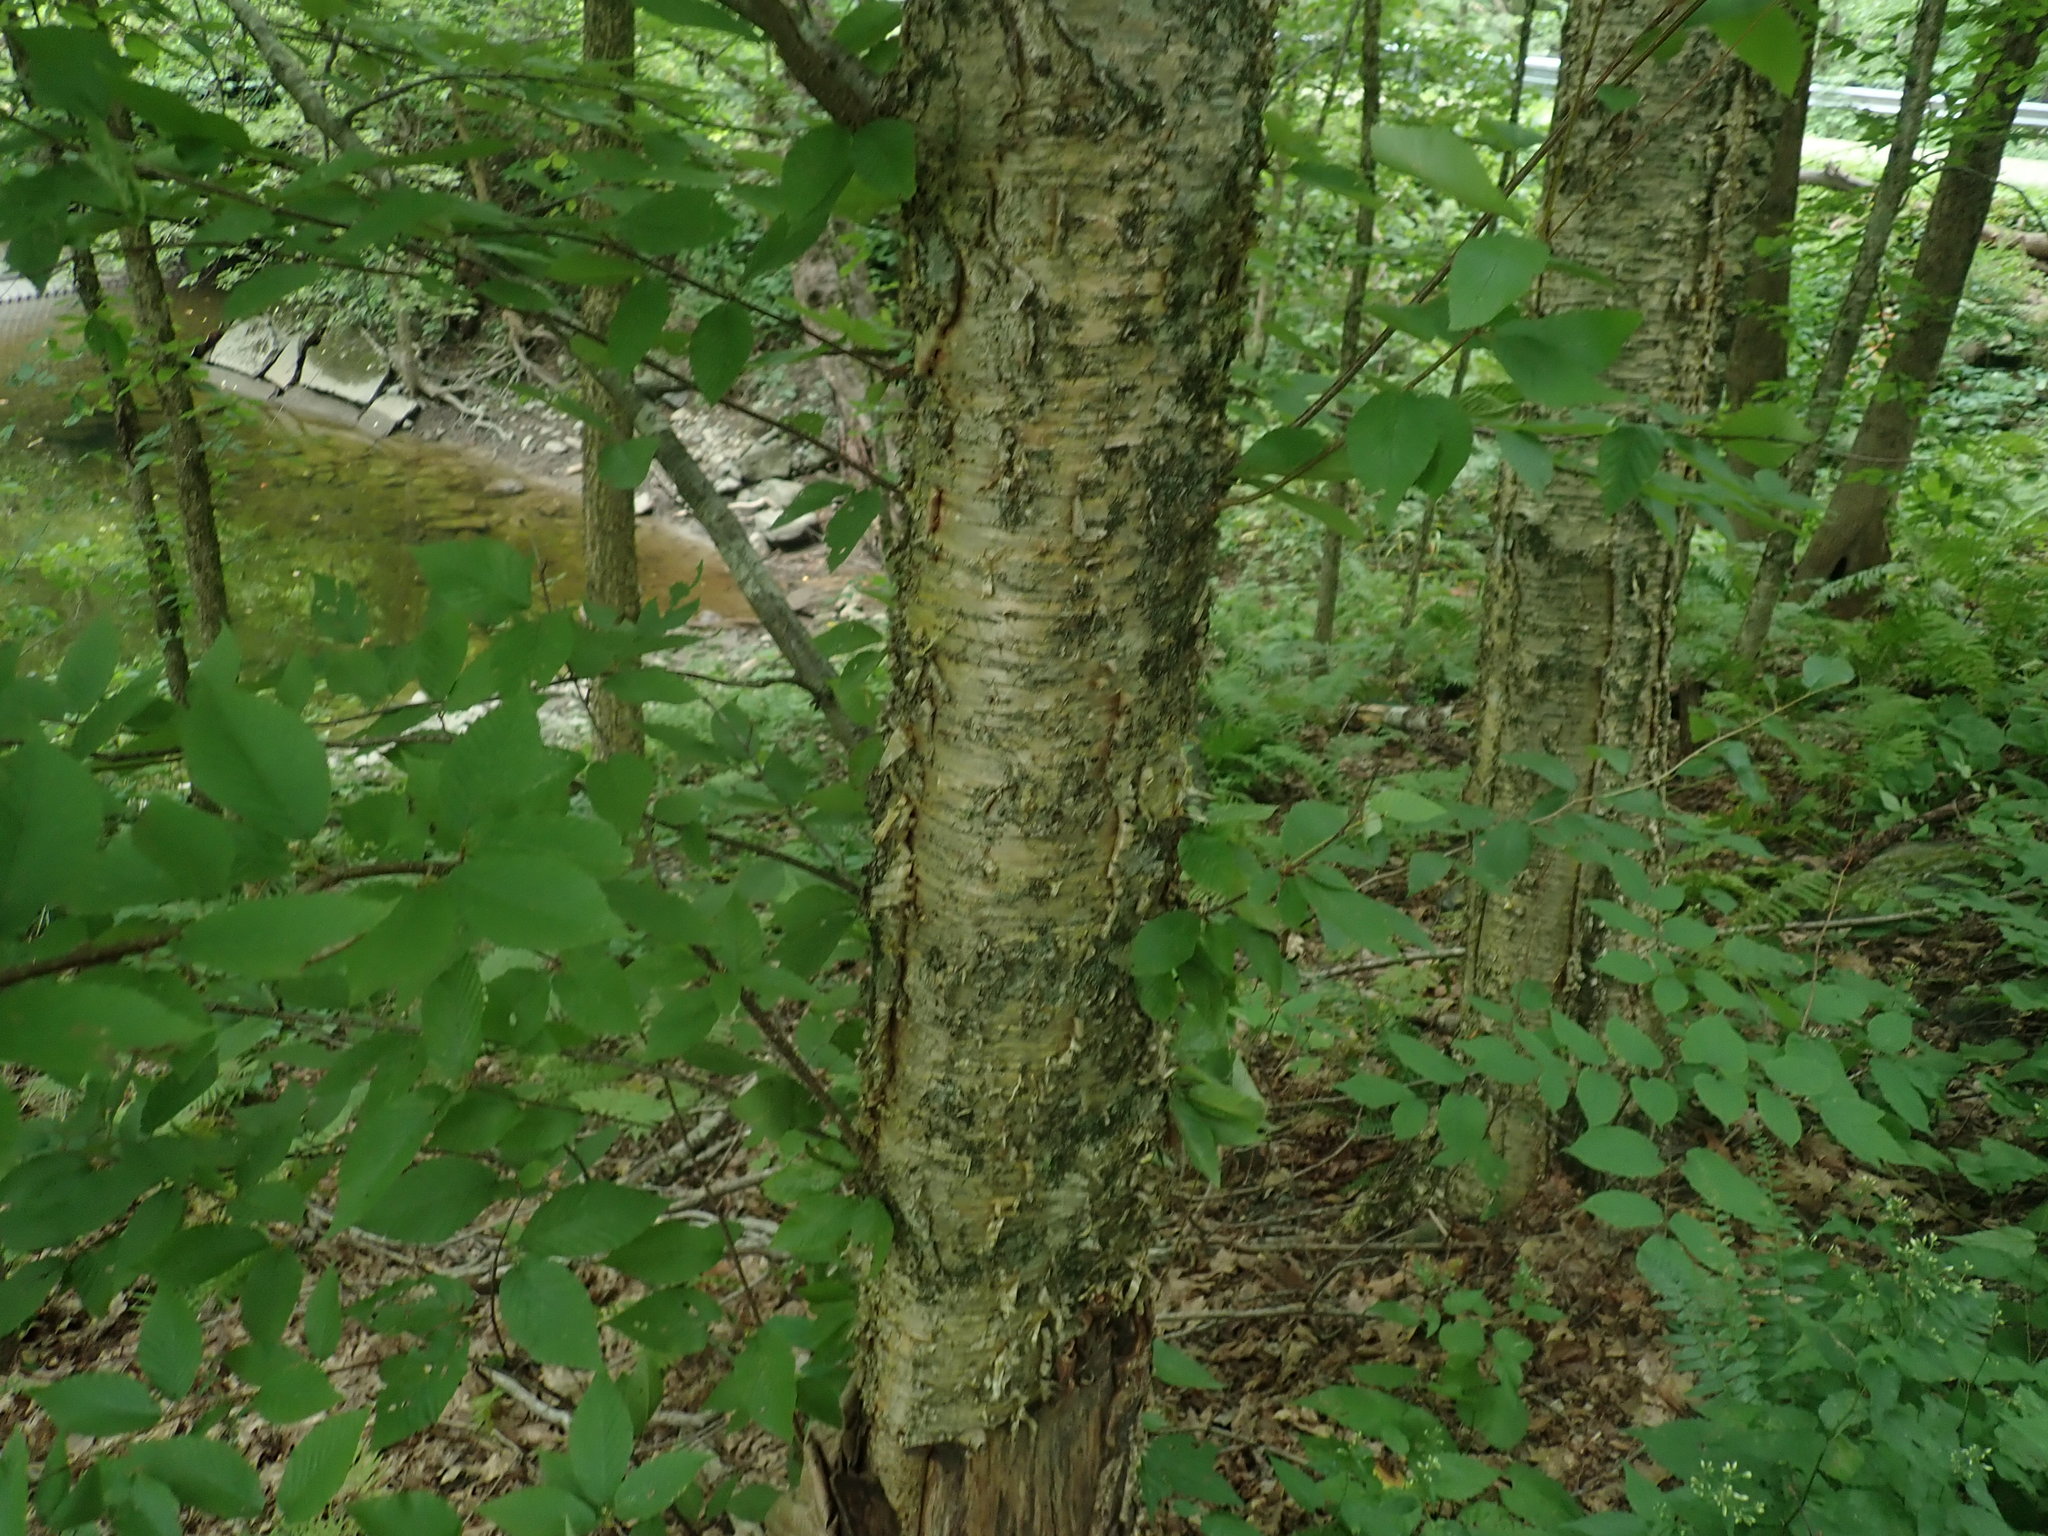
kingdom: Plantae
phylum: Tracheophyta
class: Magnoliopsida
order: Fagales
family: Betulaceae
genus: Betula
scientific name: Betula alleghaniensis
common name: Yellow birch
